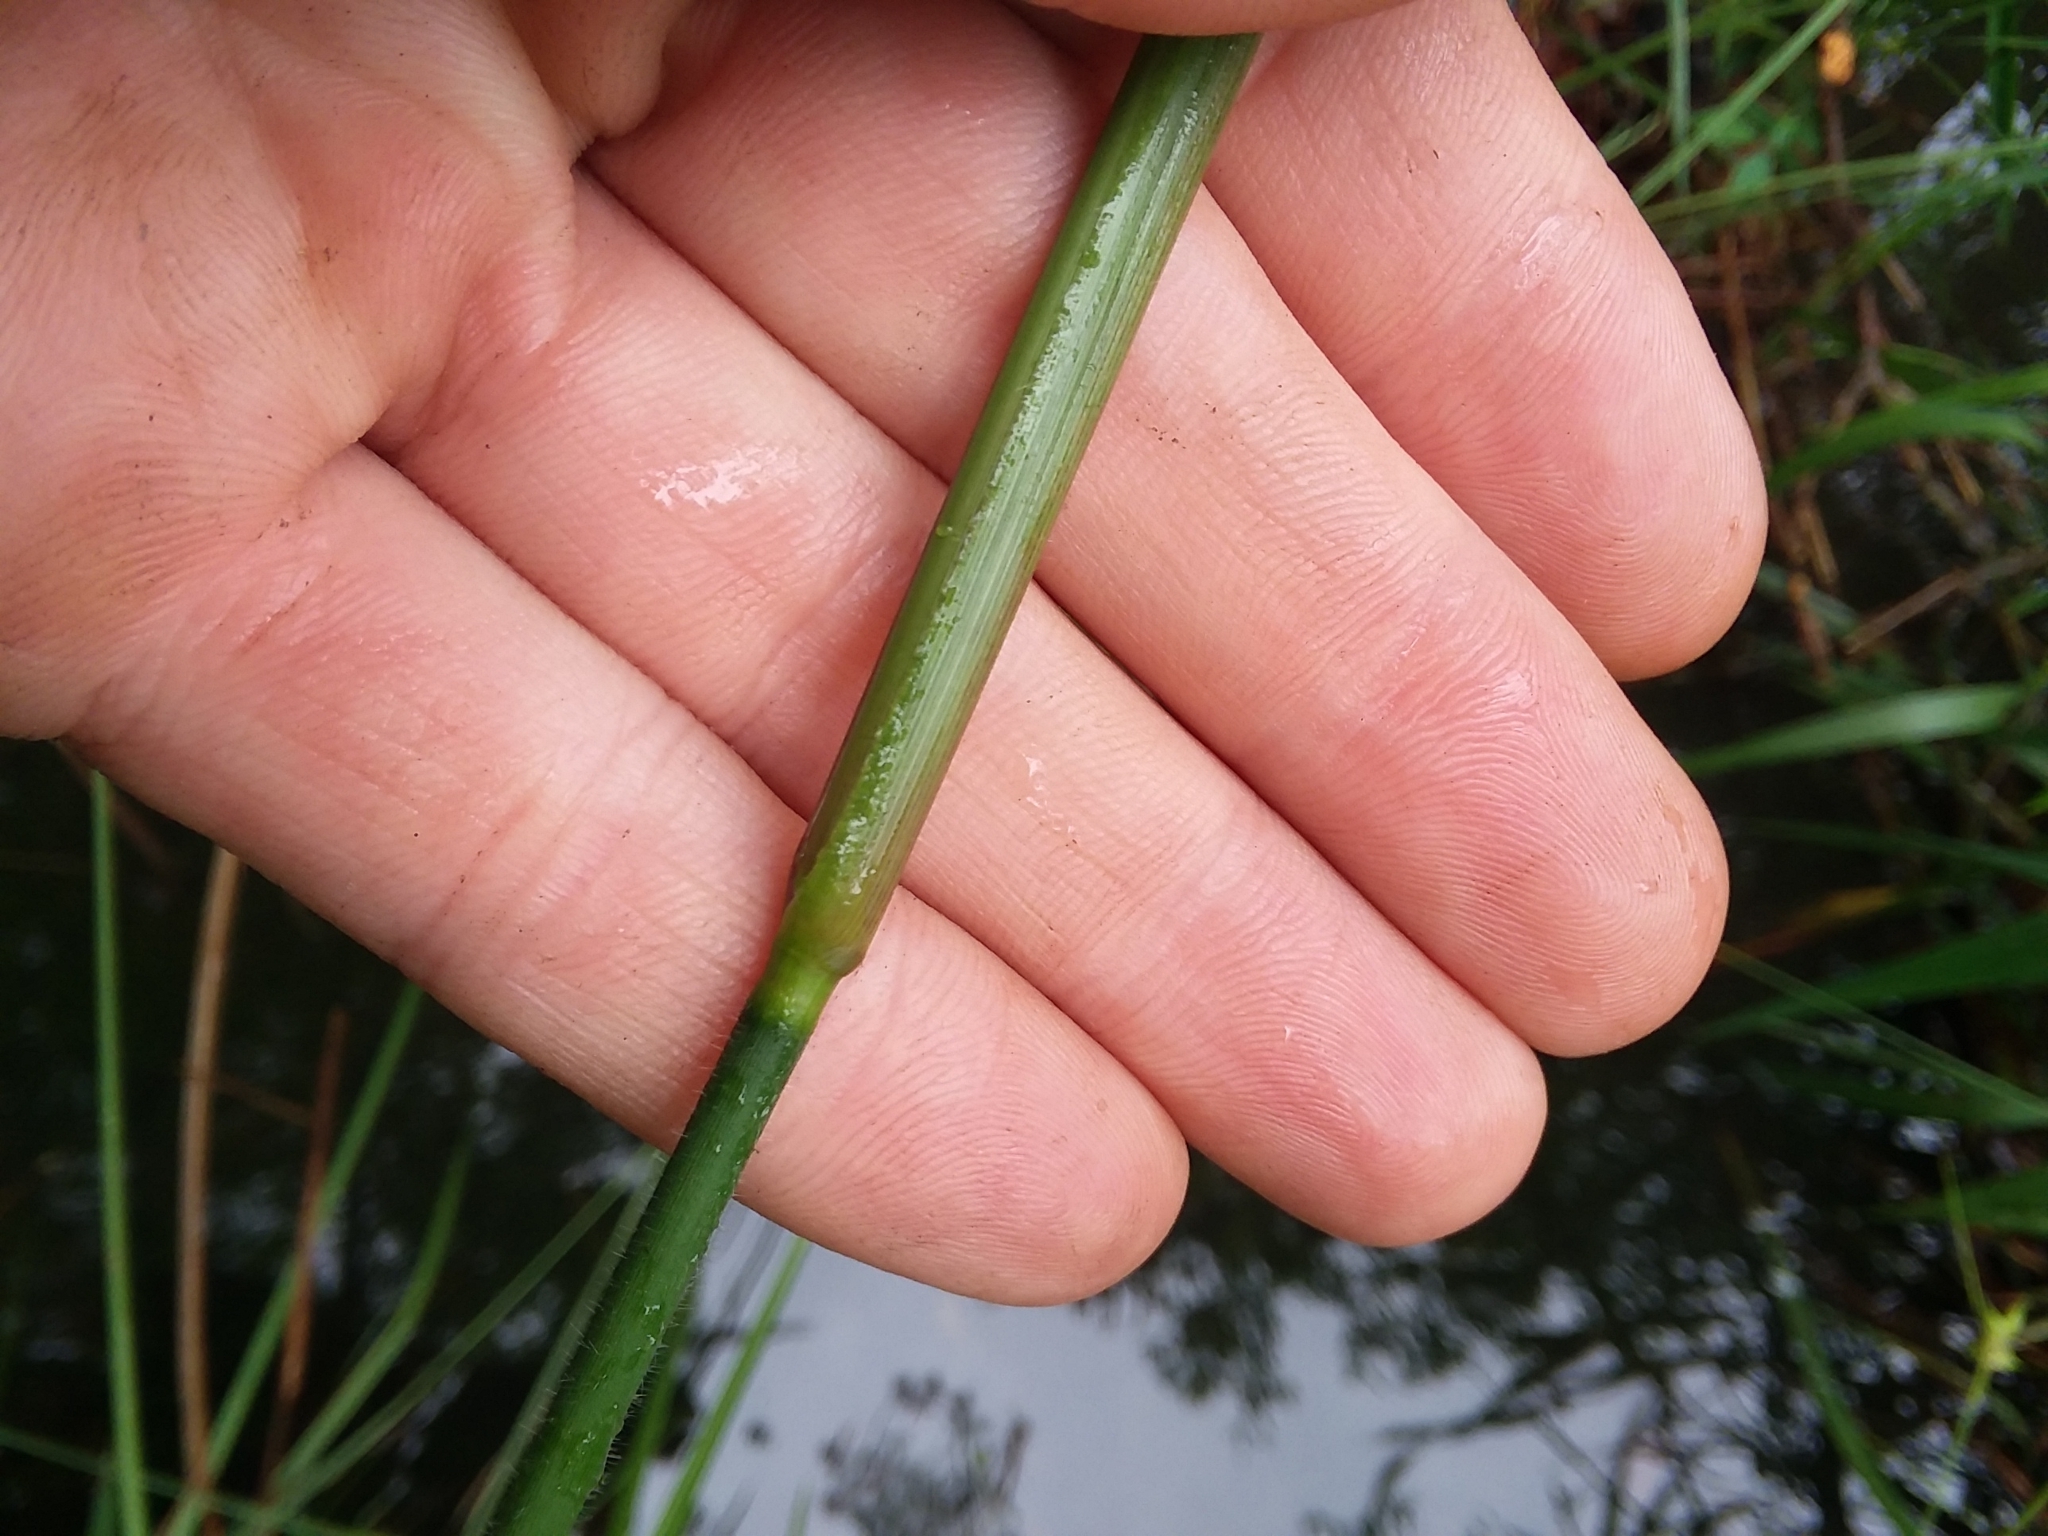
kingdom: Plantae
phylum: Tracheophyta
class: Liliopsida
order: Poales
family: Poaceae
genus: Dichanthelium
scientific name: Dichanthelium scabriusculum
